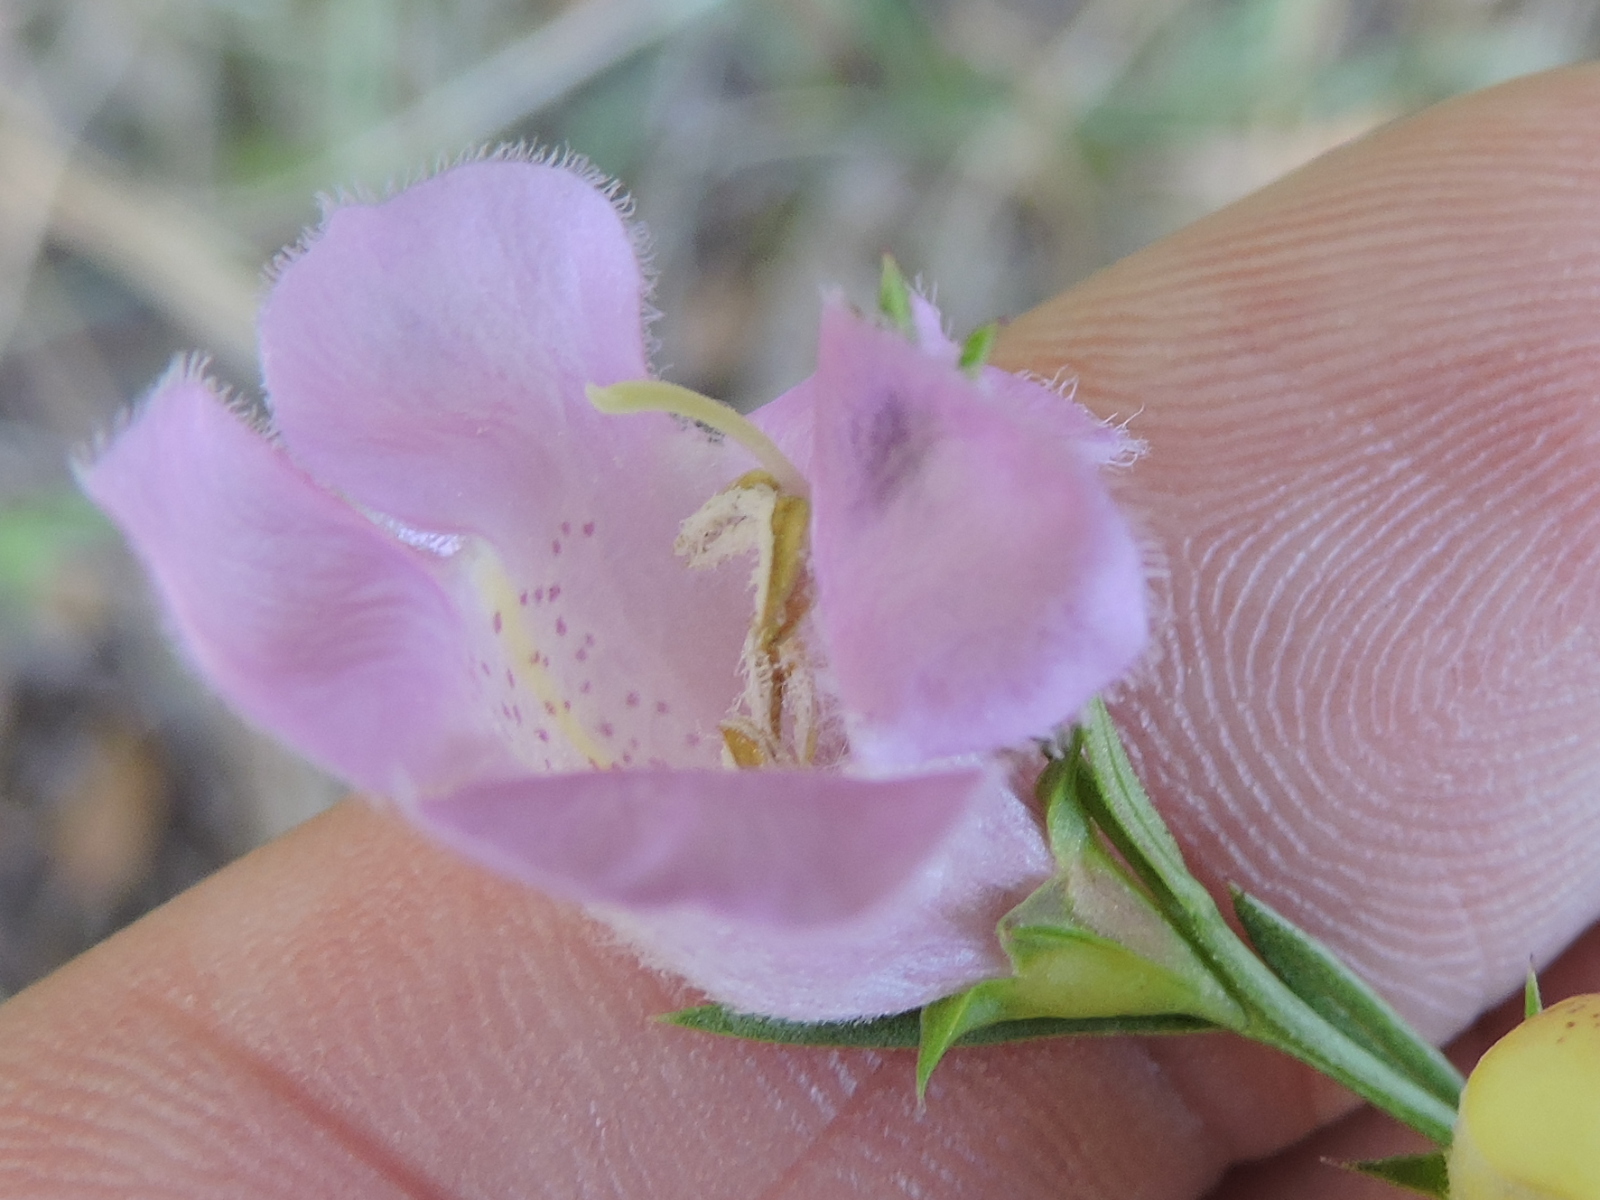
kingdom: Plantae
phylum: Tracheophyta
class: Magnoliopsida
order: Lamiales
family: Orobanchaceae
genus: Agalinis
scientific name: Agalinis heterophylla
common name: Prairie agalinis
